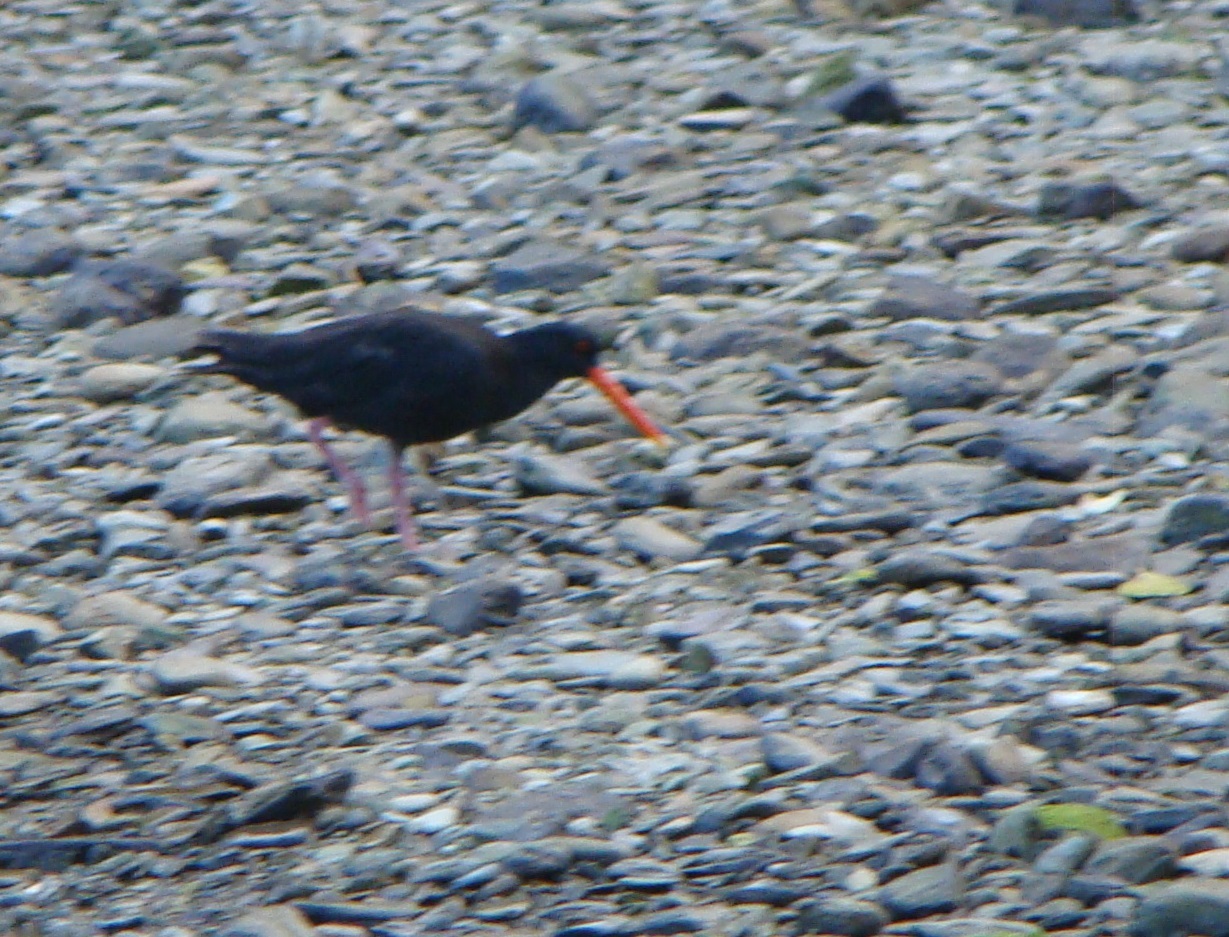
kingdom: Animalia
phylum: Chordata
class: Aves
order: Charadriiformes
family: Haematopodidae
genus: Haematopus
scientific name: Haematopus unicolor
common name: Variable oystercatcher
